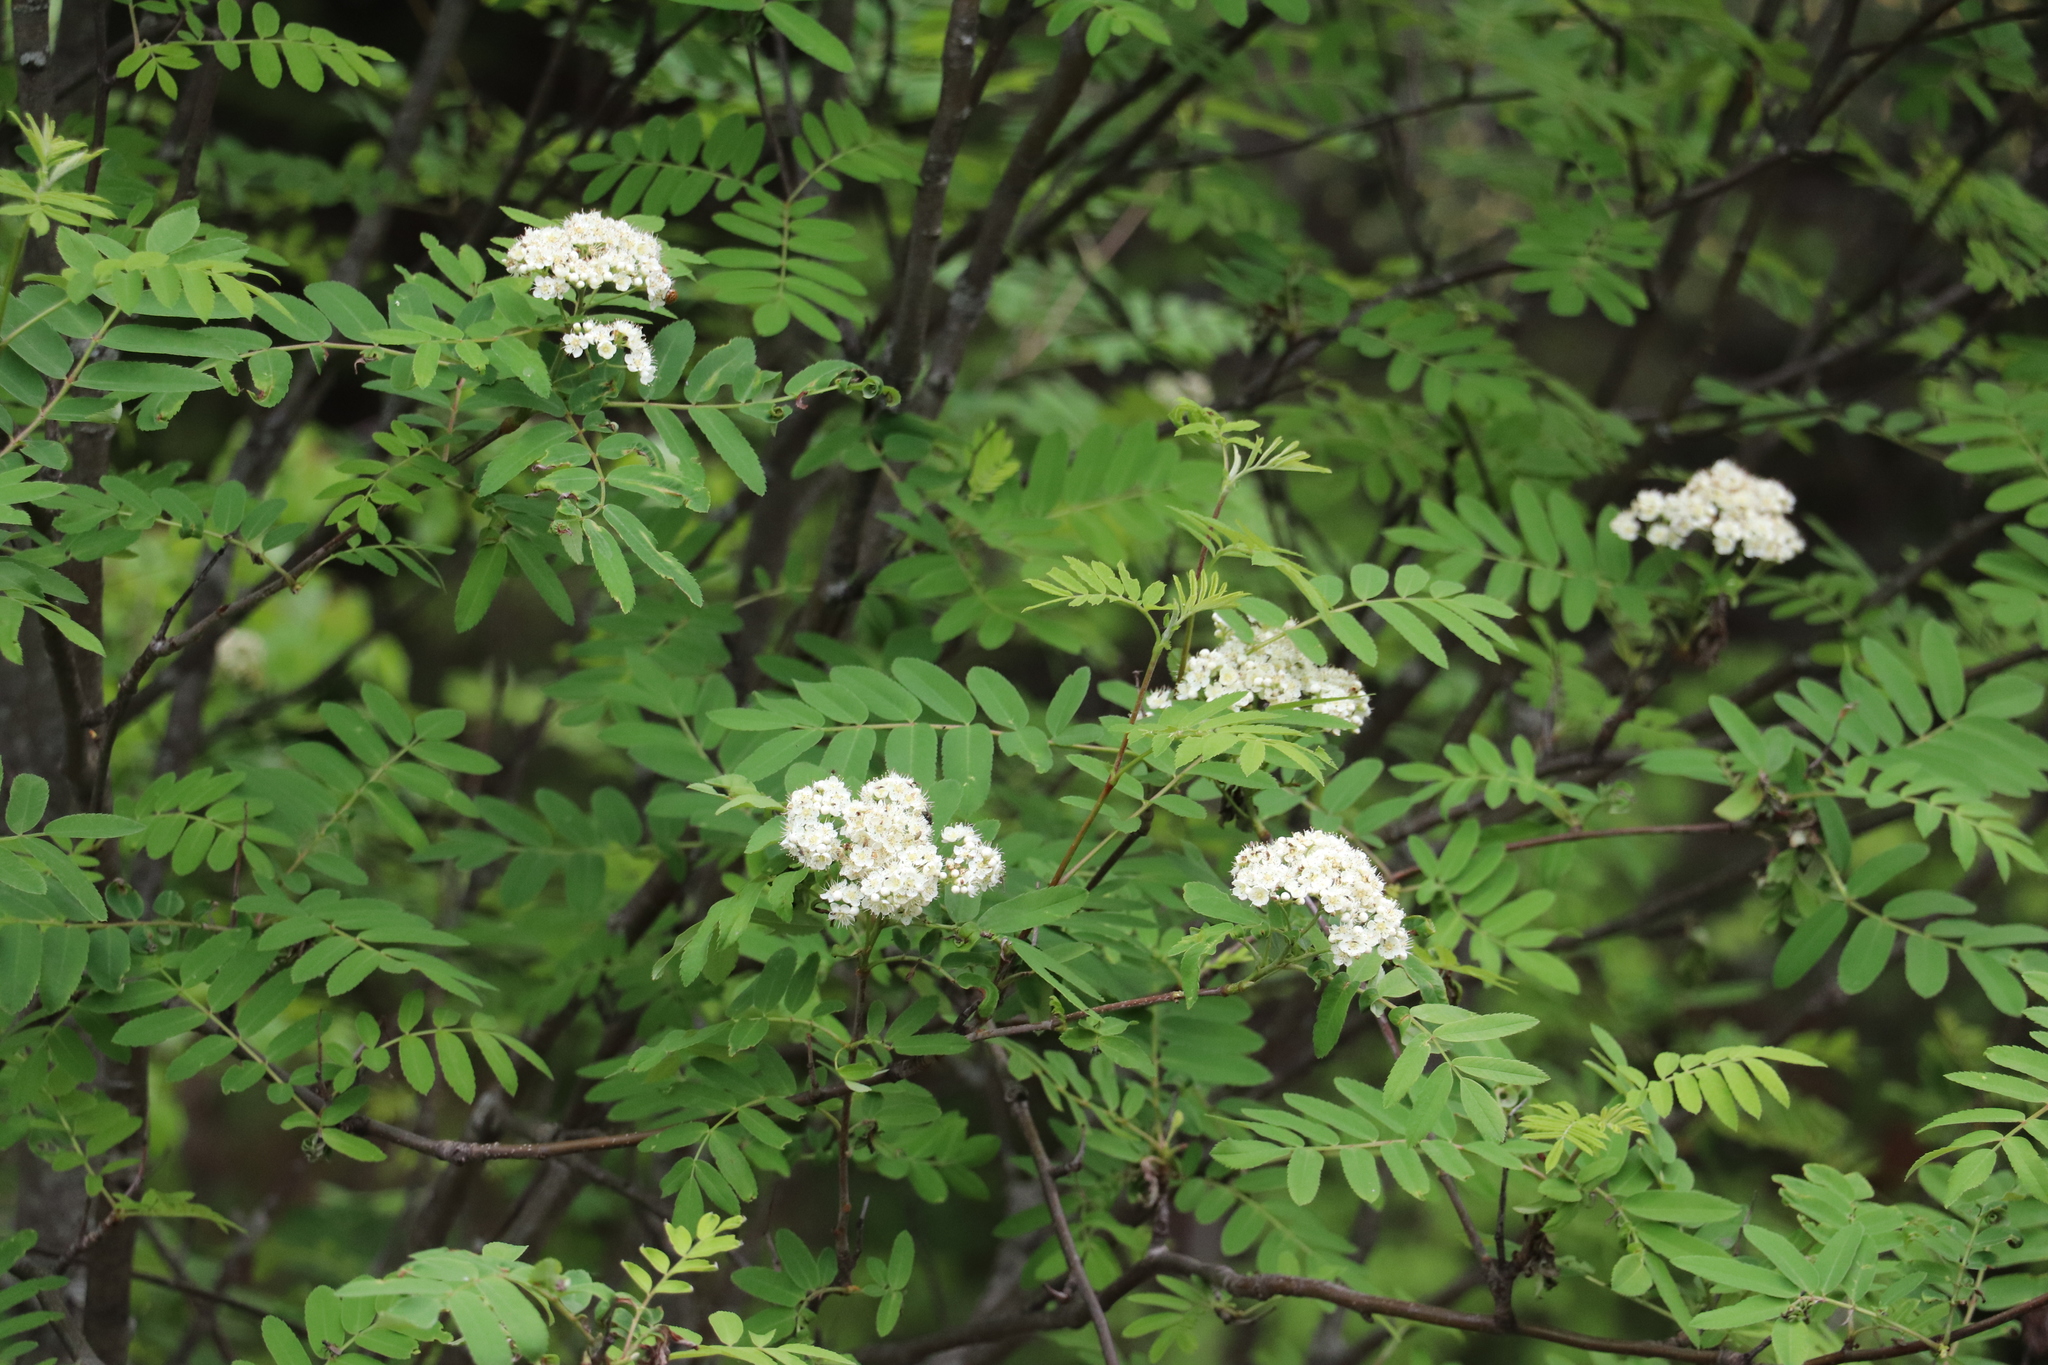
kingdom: Plantae
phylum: Tracheophyta
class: Magnoliopsida
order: Rosales
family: Rosaceae
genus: Sorbus
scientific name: Sorbus aucuparia
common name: Rowan
